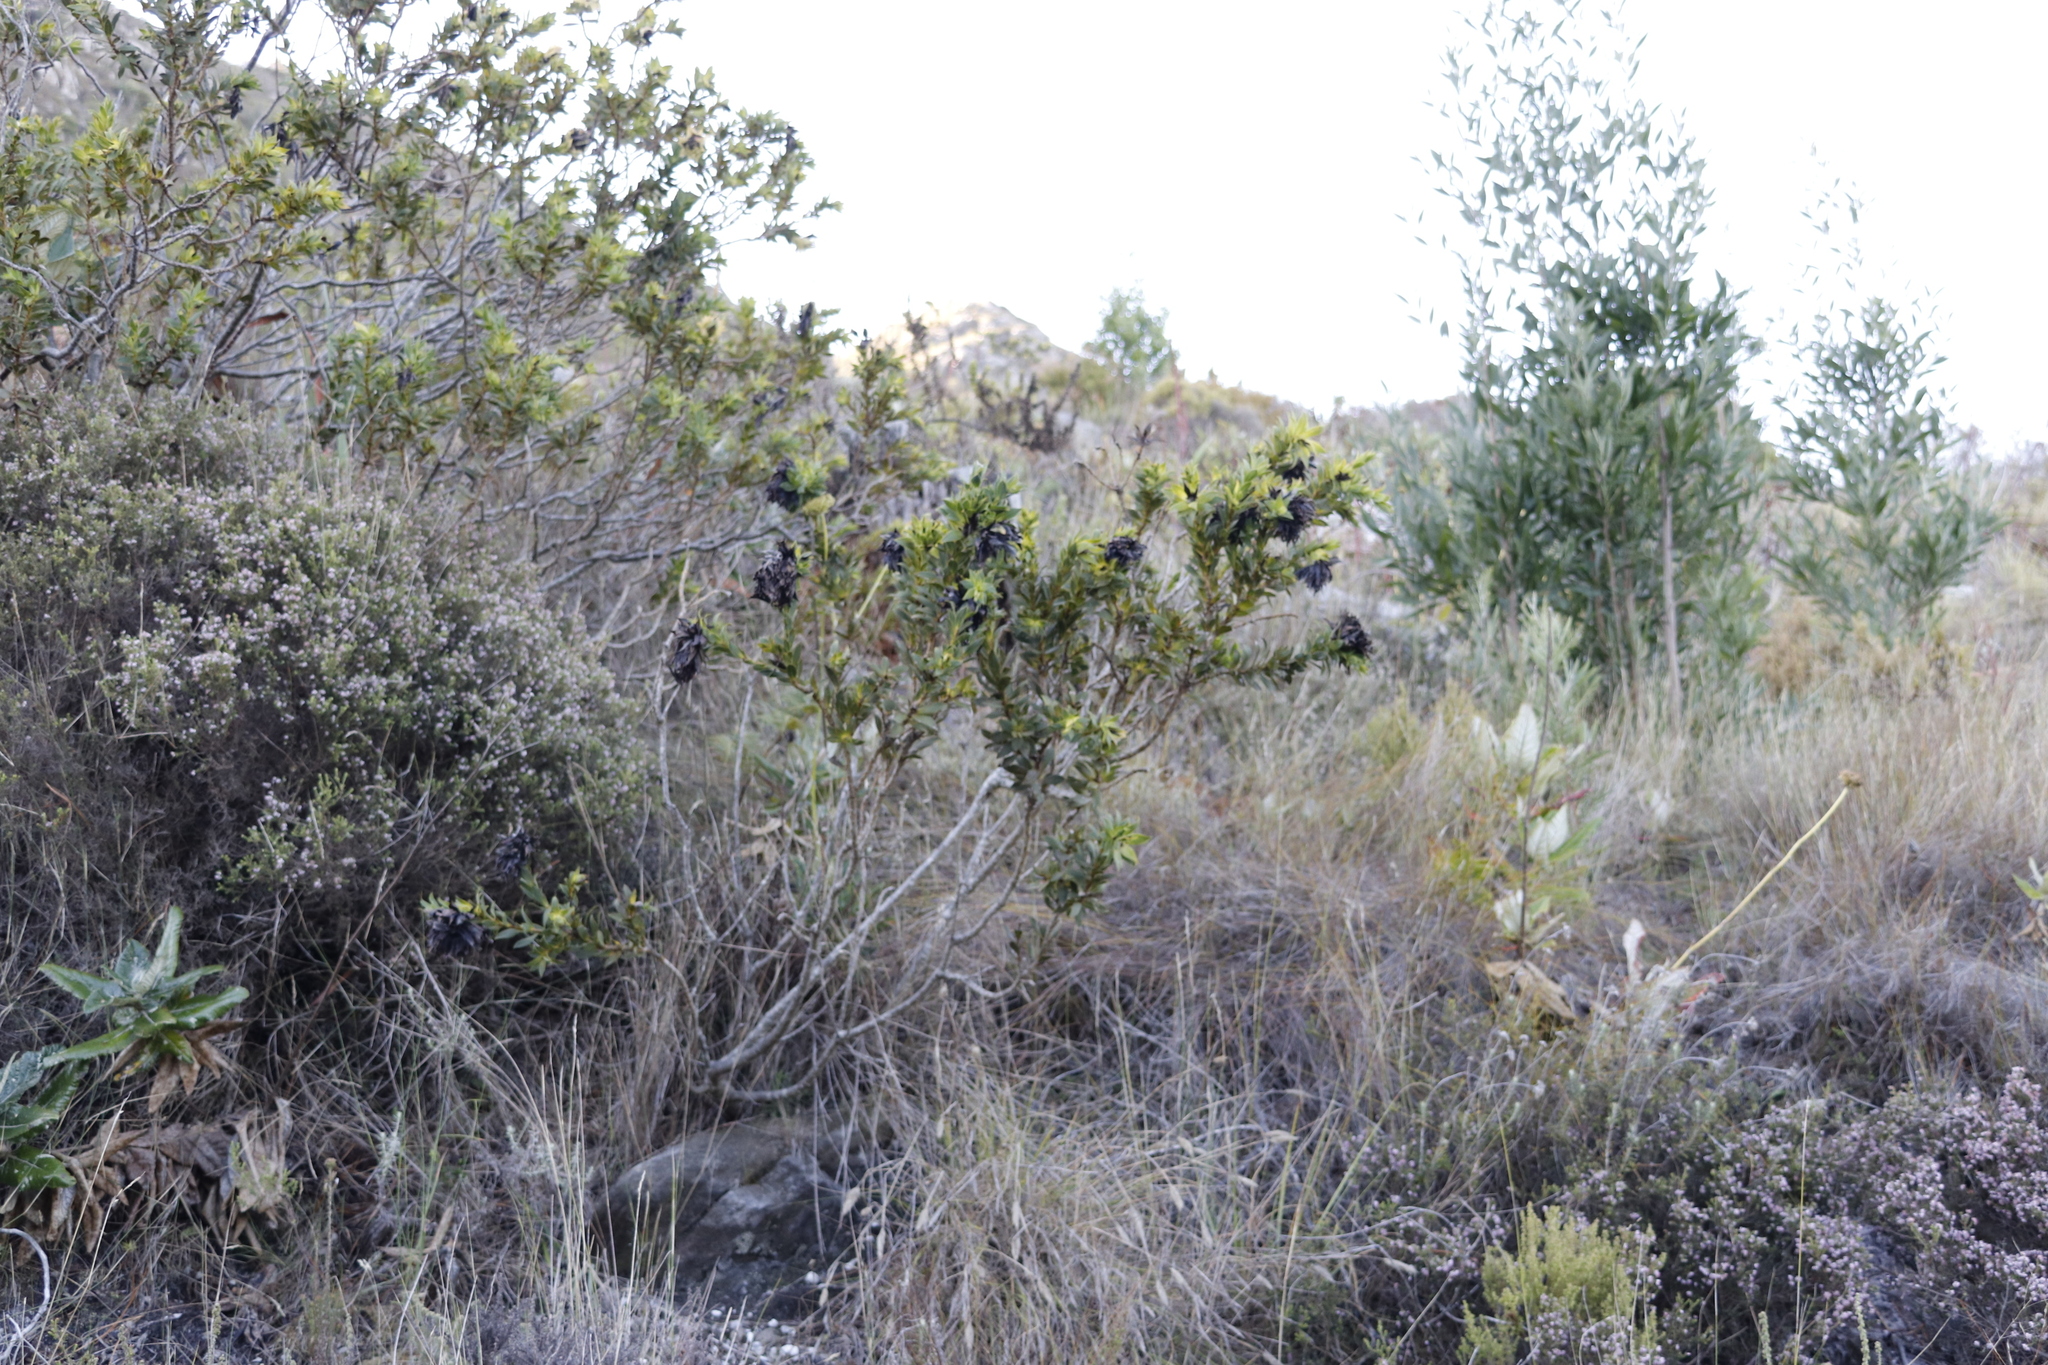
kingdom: Plantae
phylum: Tracheophyta
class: Magnoliopsida
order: Fabales
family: Fabaceae
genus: Liparia
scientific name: Liparia splendens
